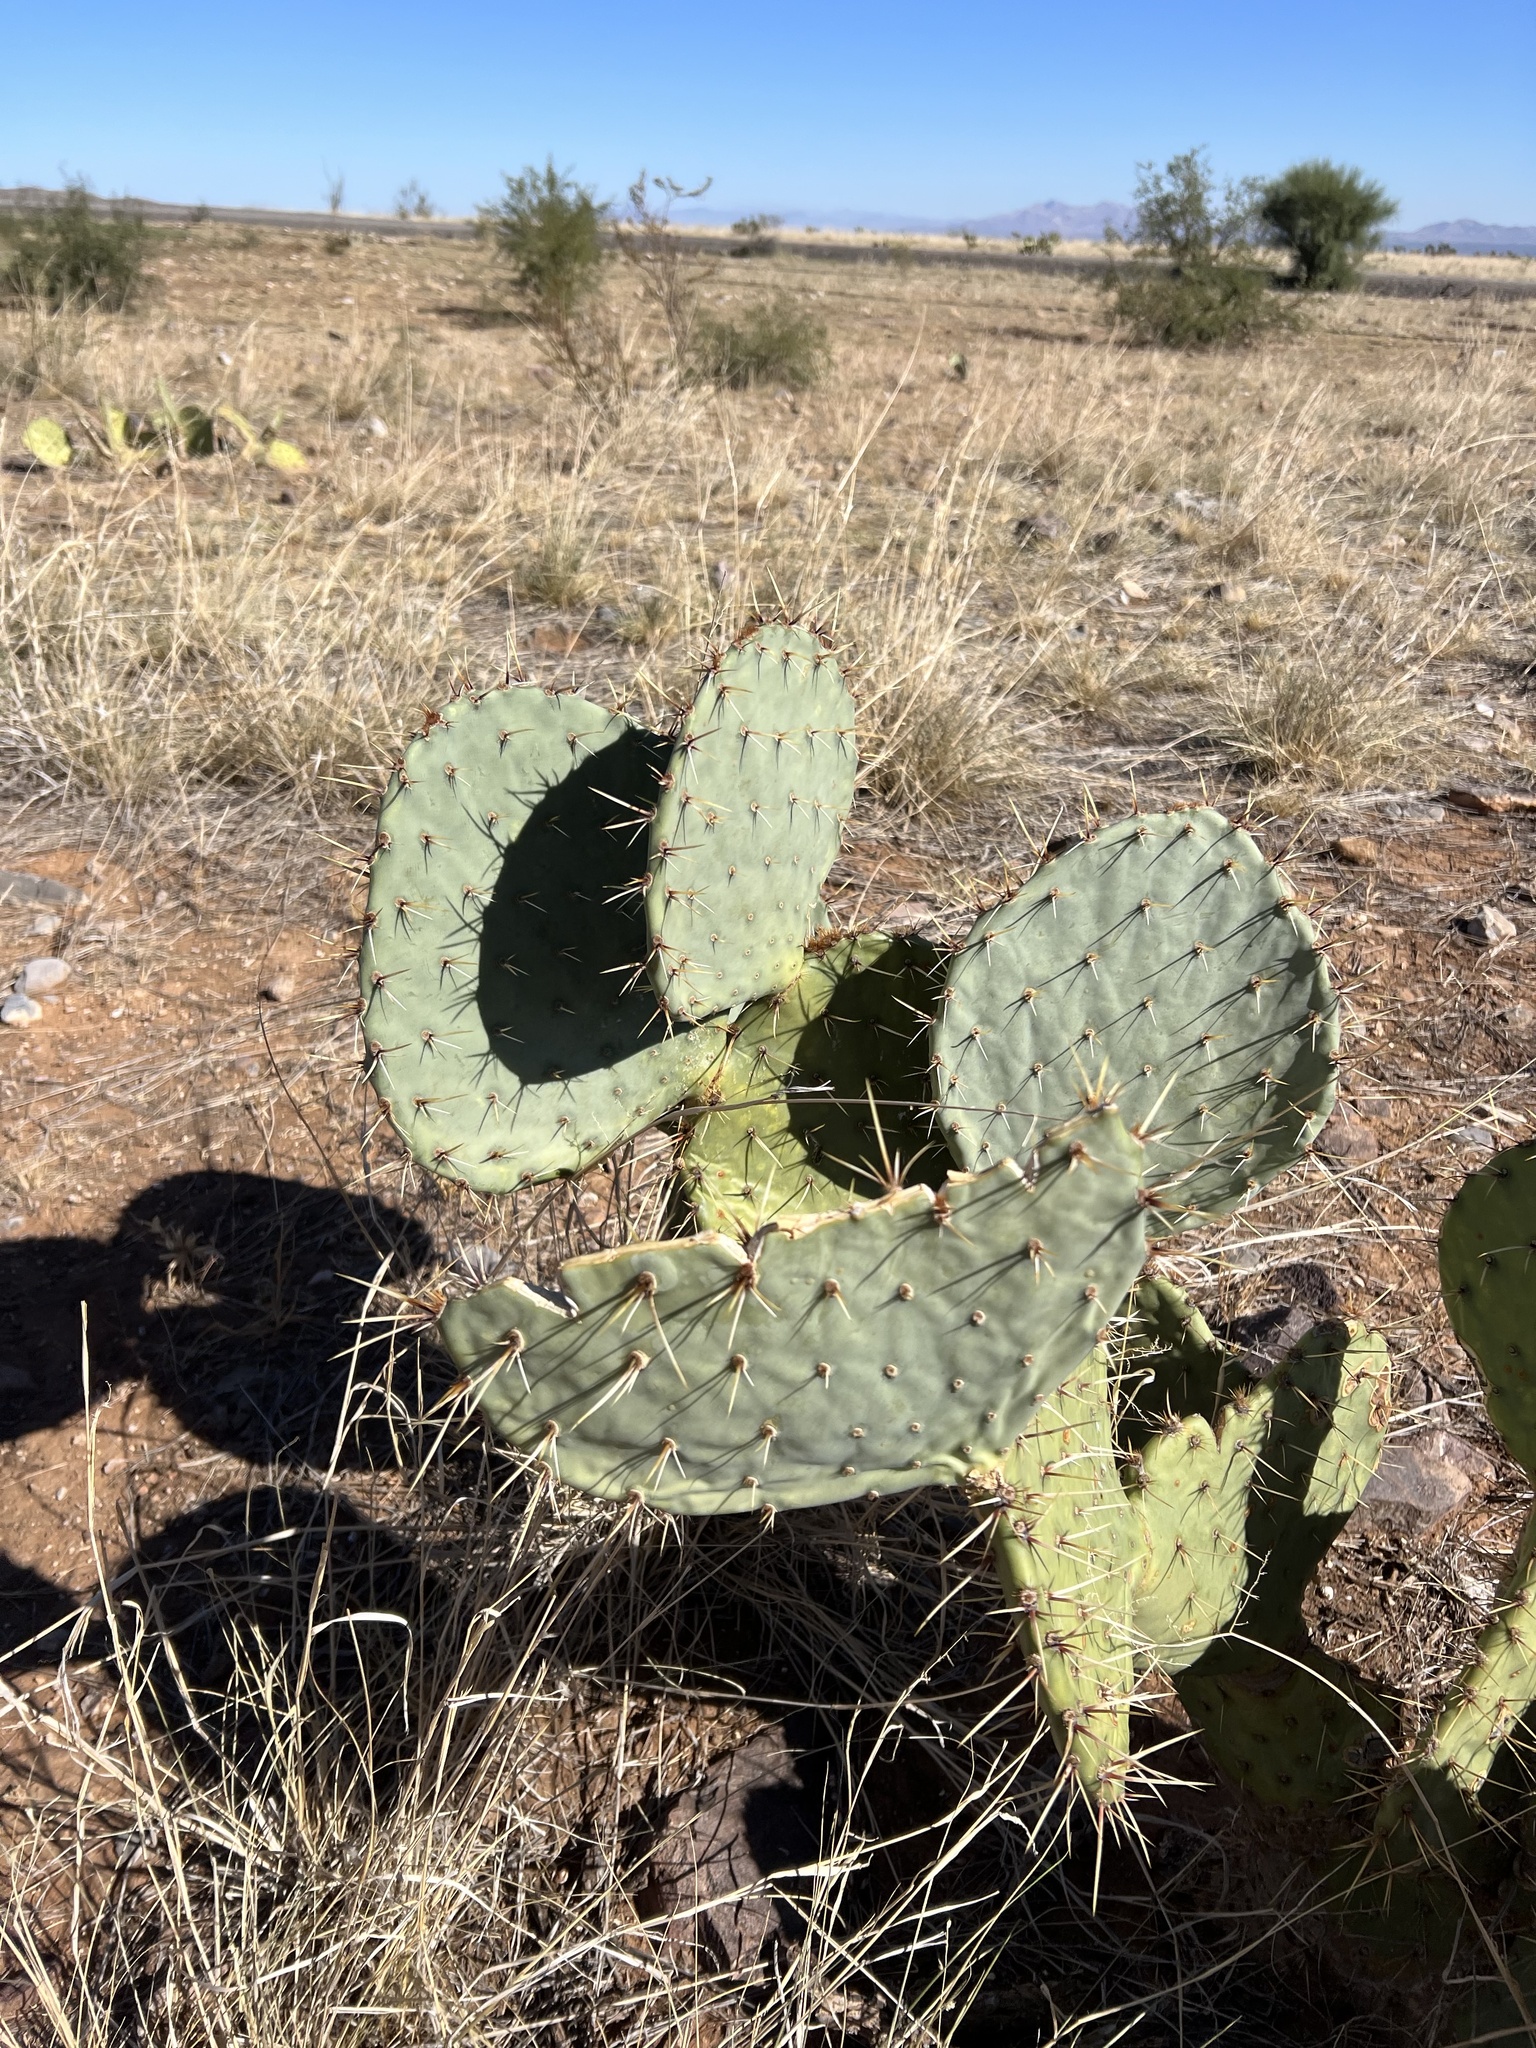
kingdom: Plantae
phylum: Tracheophyta
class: Magnoliopsida
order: Caryophyllales
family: Cactaceae
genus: Opuntia
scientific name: Opuntia engelmannii
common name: Cactus-apple
